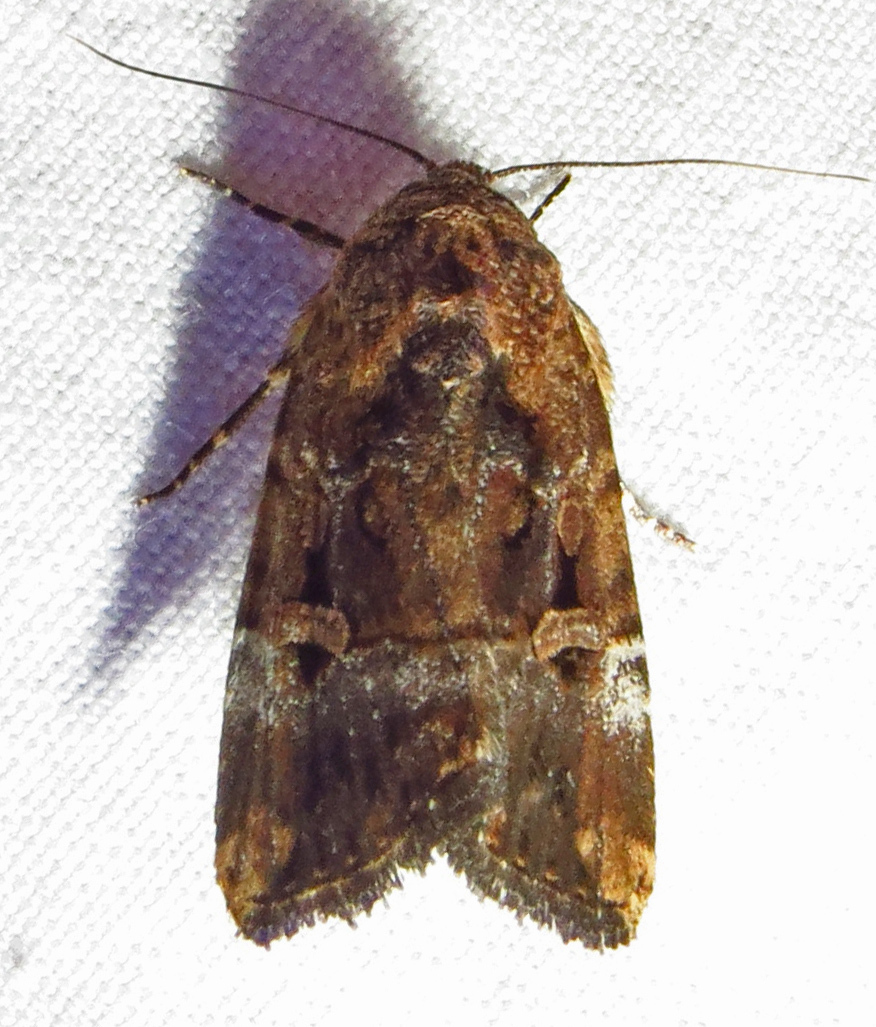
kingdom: Animalia
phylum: Arthropoda
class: Insecta
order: Lepidoptera
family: Noctuidae
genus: Elaphria
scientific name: Elaphria chalcedonia
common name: Chalcedony midget
